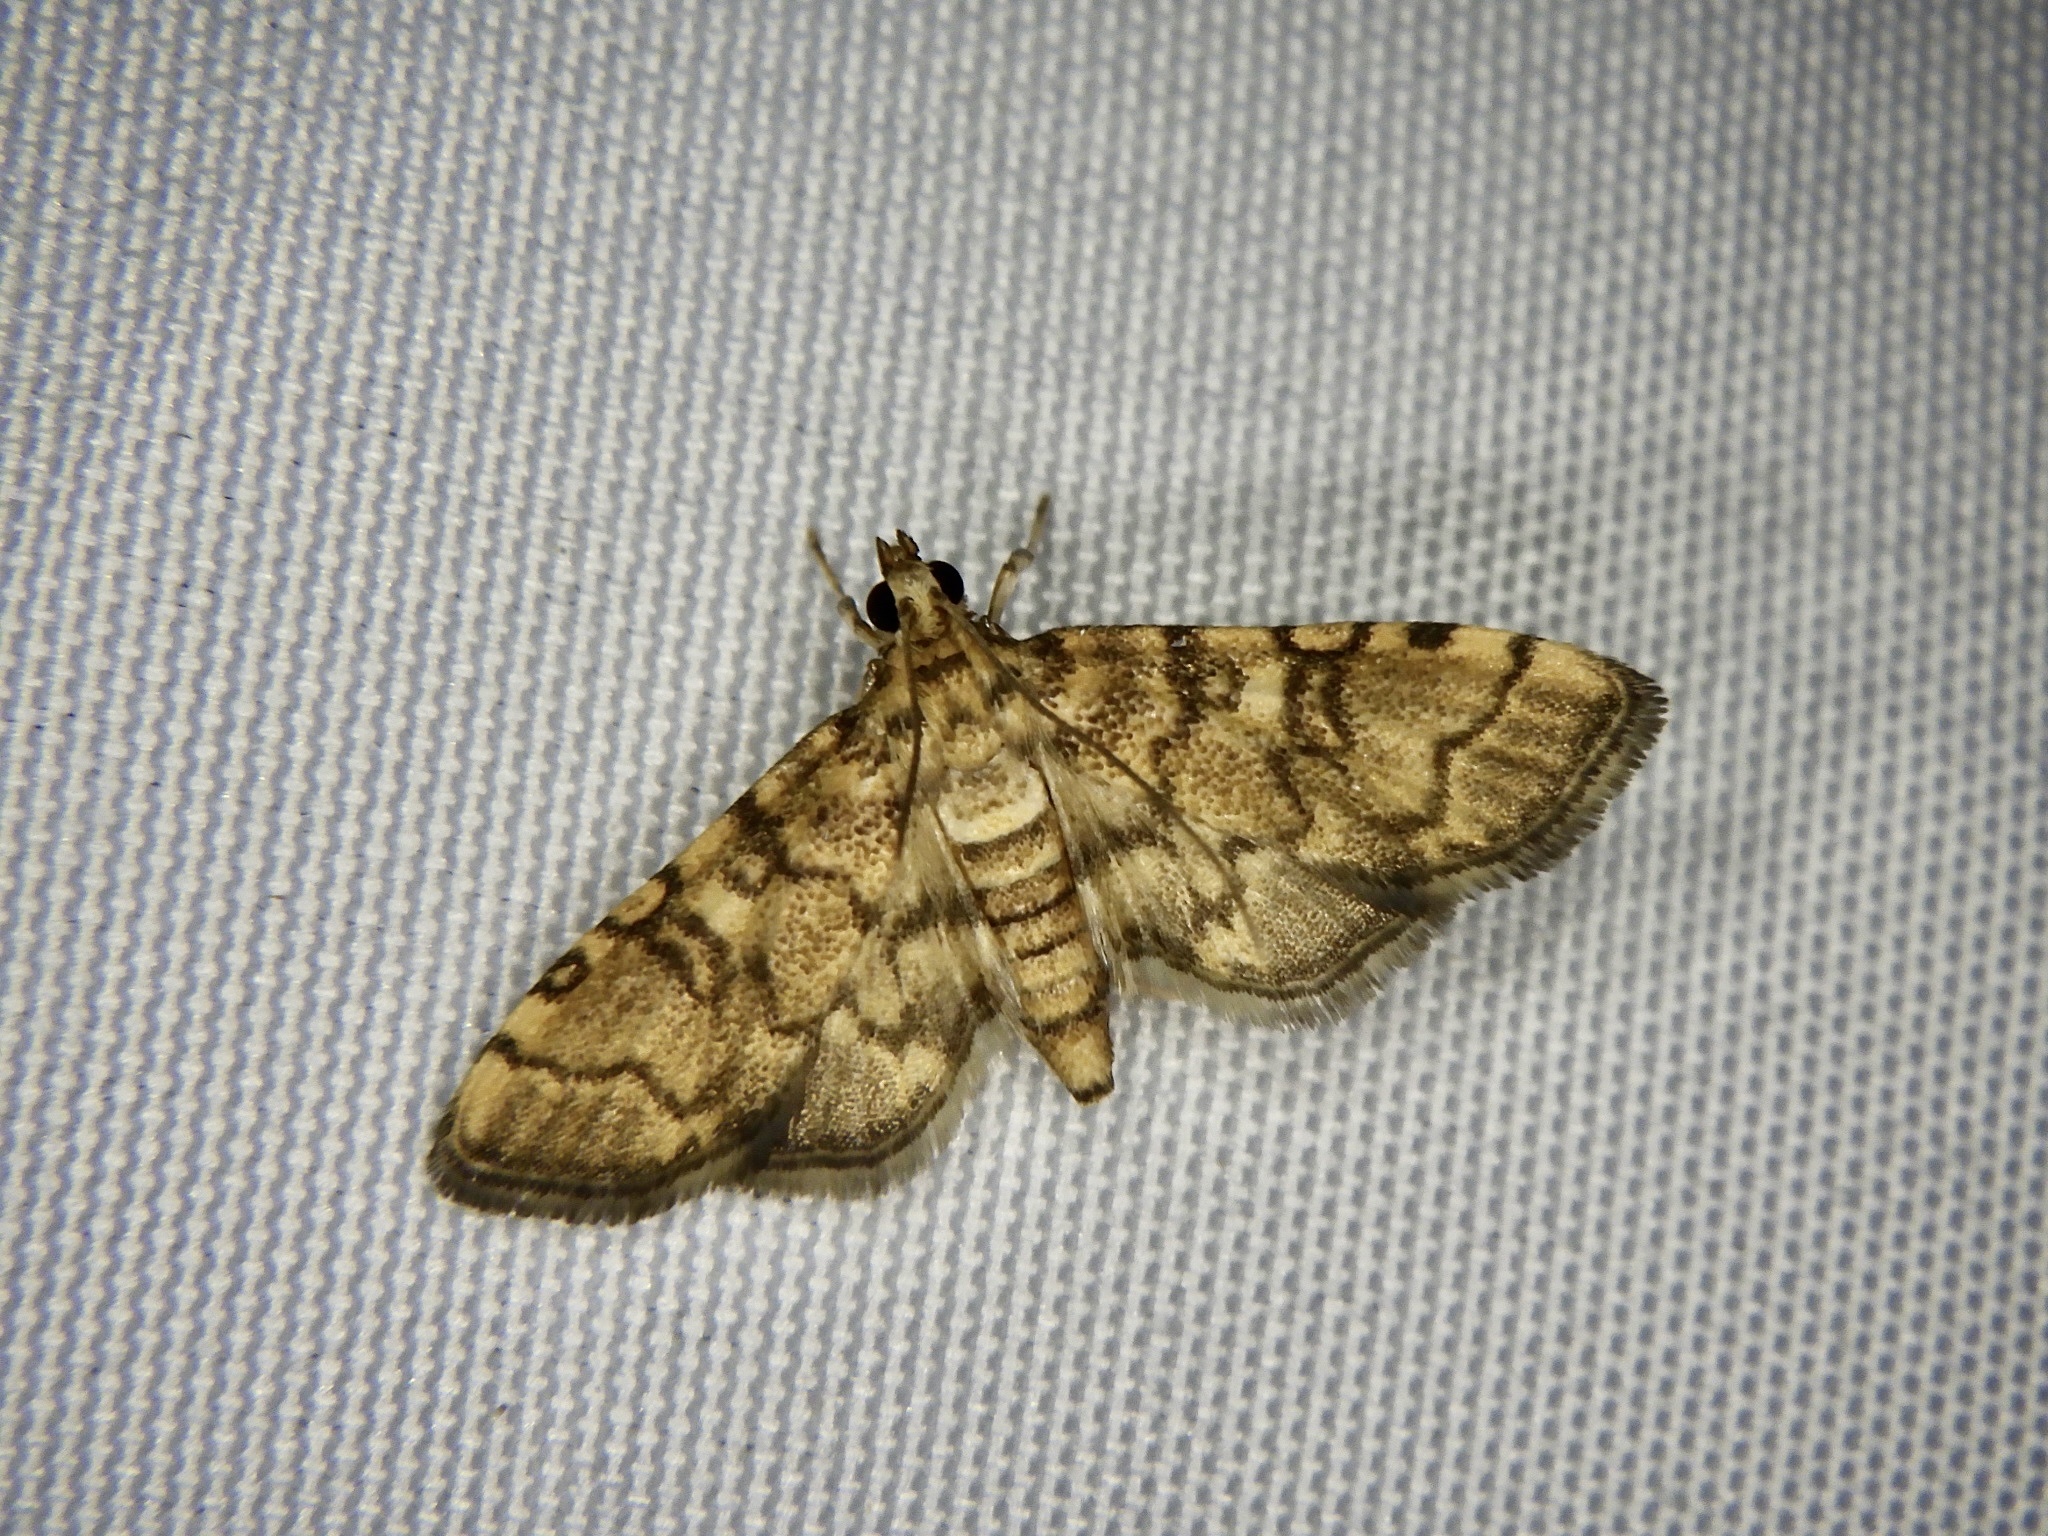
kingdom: Animalia
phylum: Arthropoda
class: Insecta
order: Lepidoptera
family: Crambidae
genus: Nacoleia
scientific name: Nacoleia
